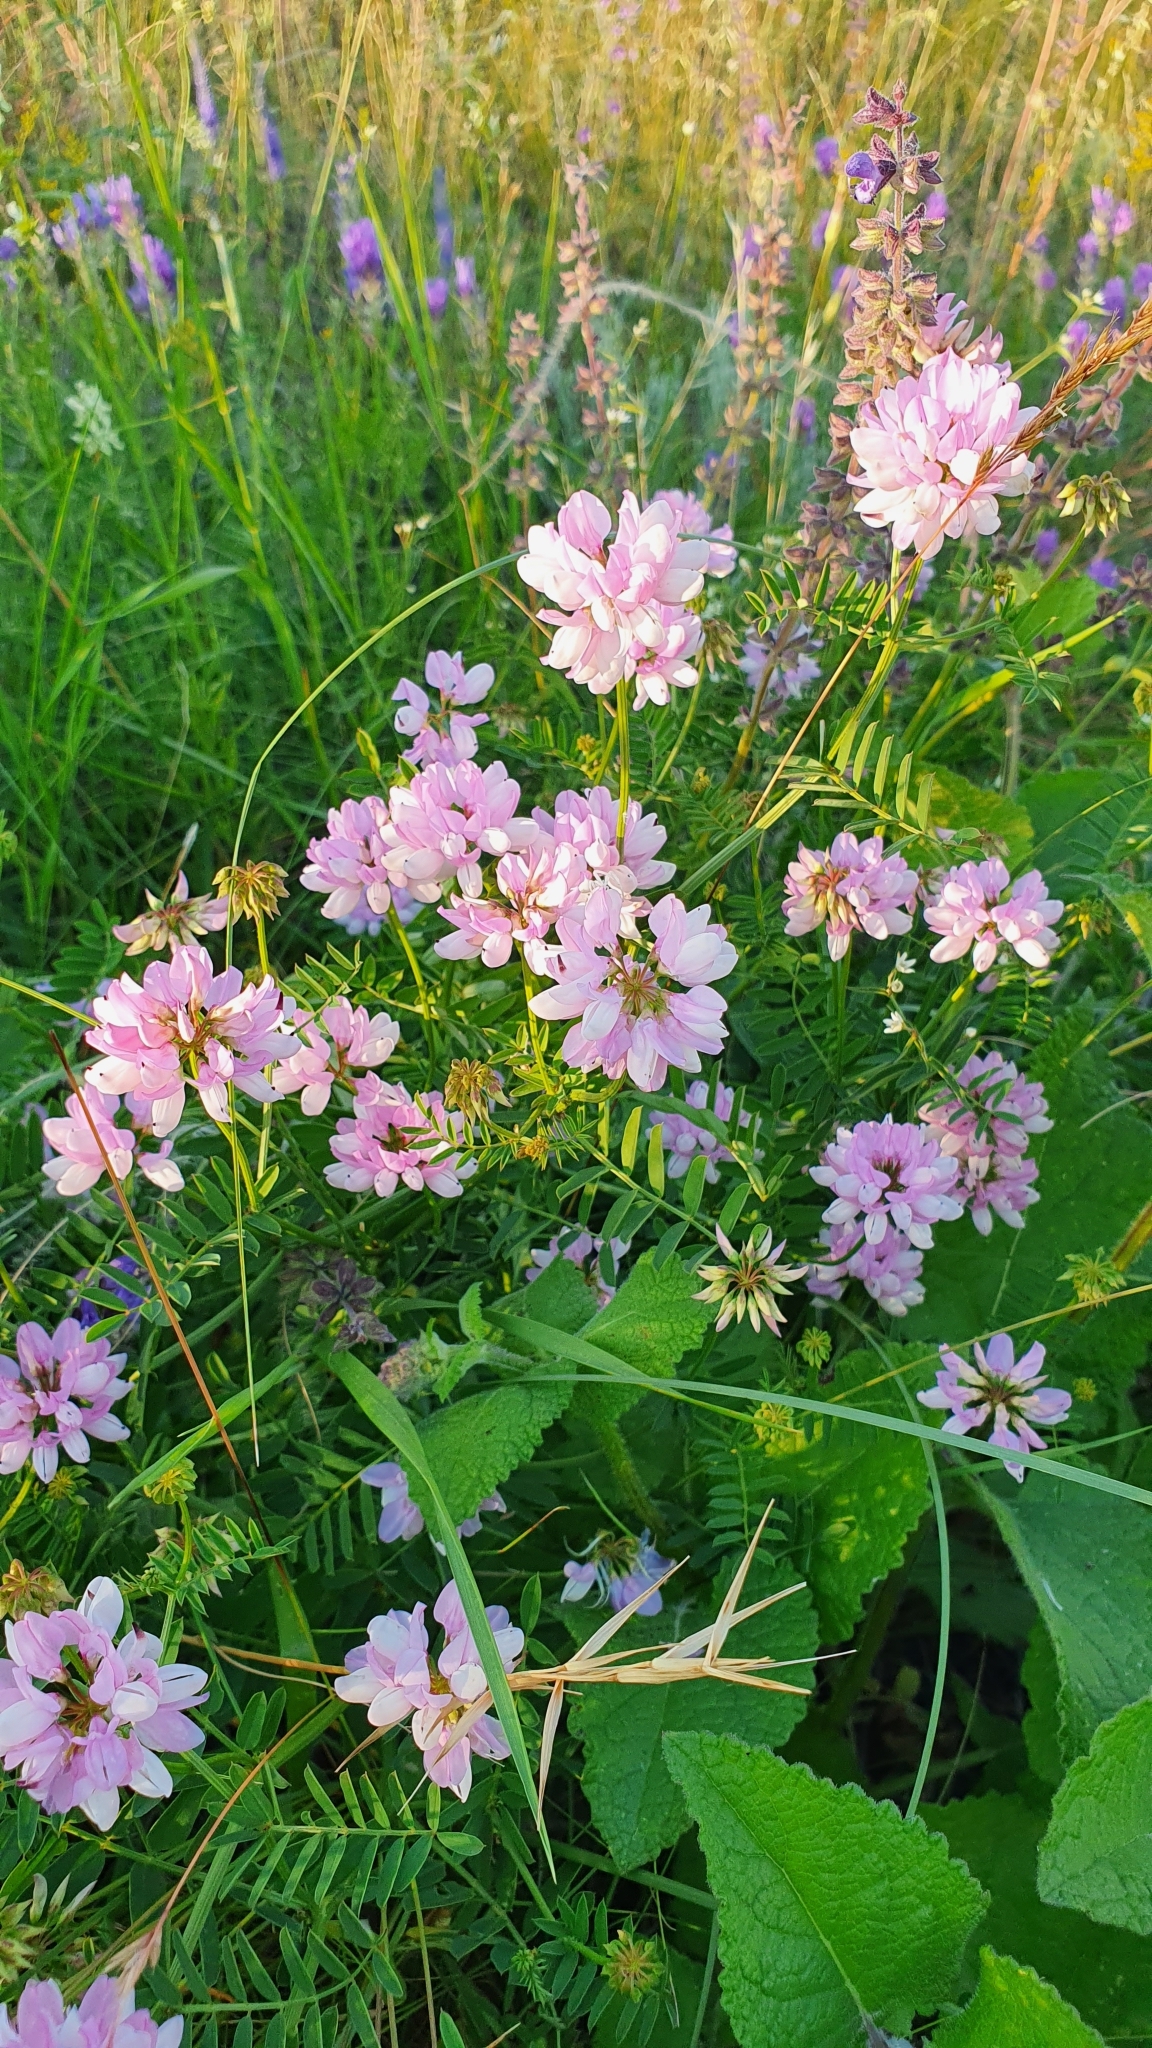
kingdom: Plantae
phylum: Tracheophyta
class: Magnoliopsida
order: Fabales
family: Fabaceae
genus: Coronilla
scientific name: Coronilla varia
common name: Crownvetch
